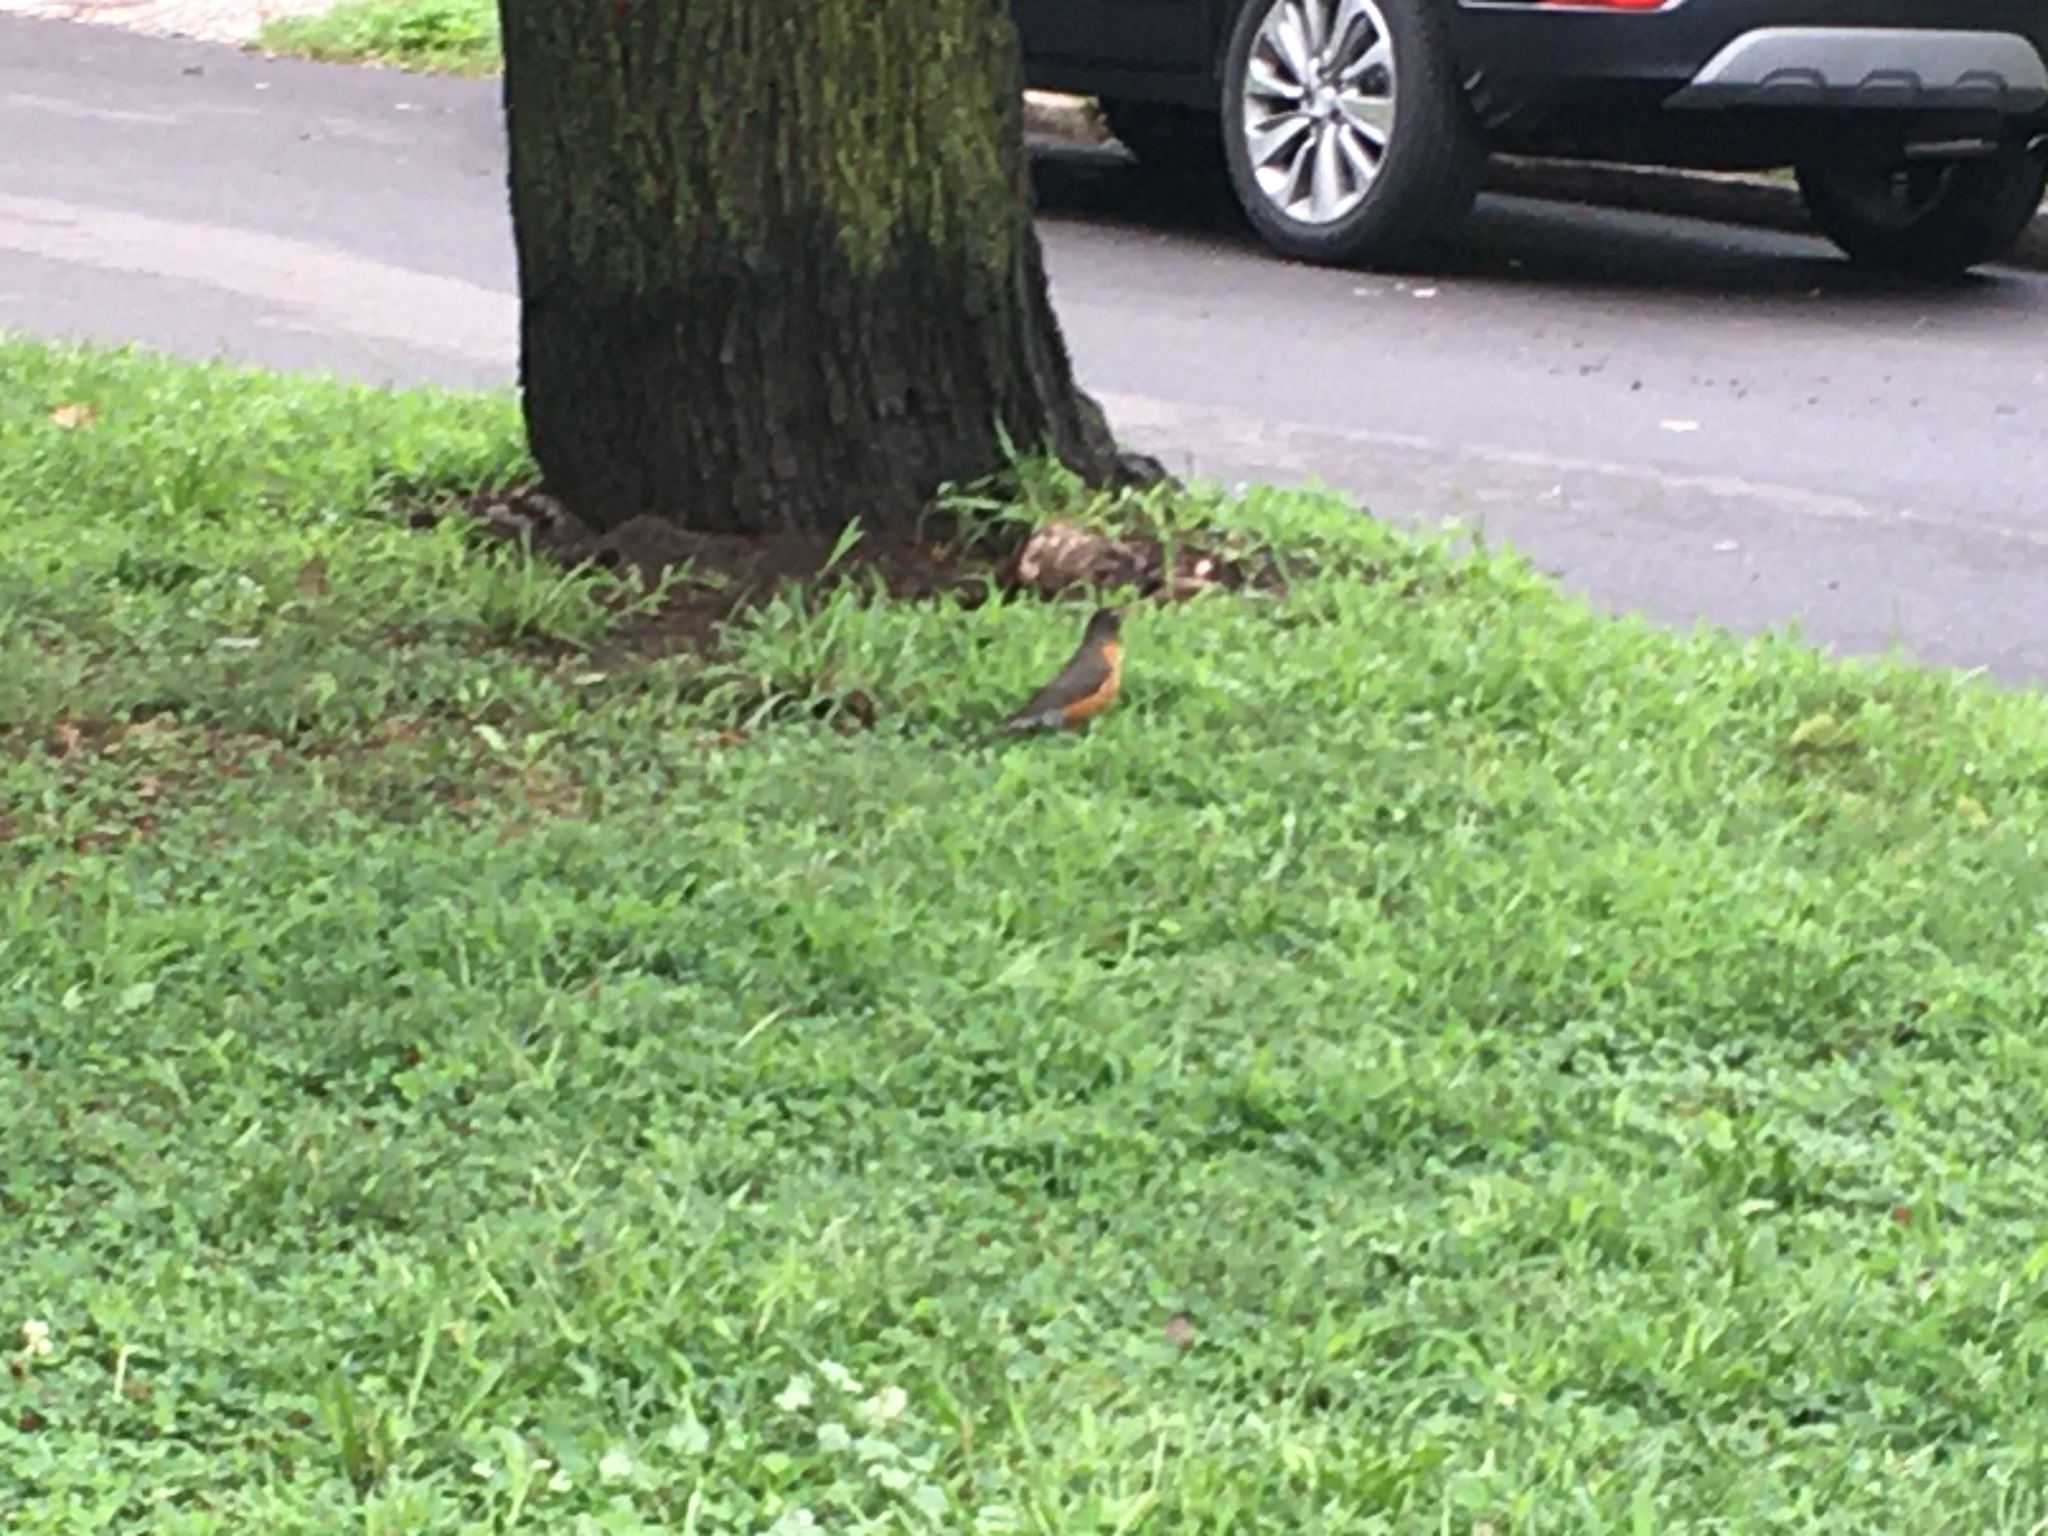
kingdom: Animalia
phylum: Chordata
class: Aves
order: Passeriformes
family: Turdidae
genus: Turdus
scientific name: Turdus migratorius
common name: American robin
